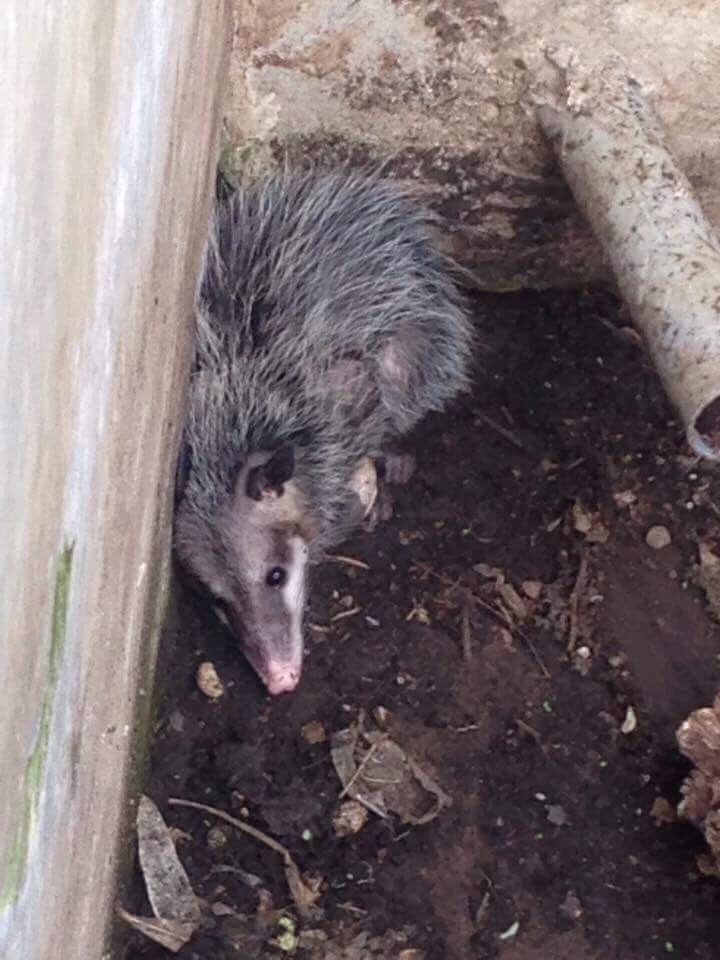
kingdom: Animalia
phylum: Chordata
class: Mammalia
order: Didelphimorphia
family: Didelphidae
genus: Didelphis
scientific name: Didelphis virginiana
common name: Virginia opossum
